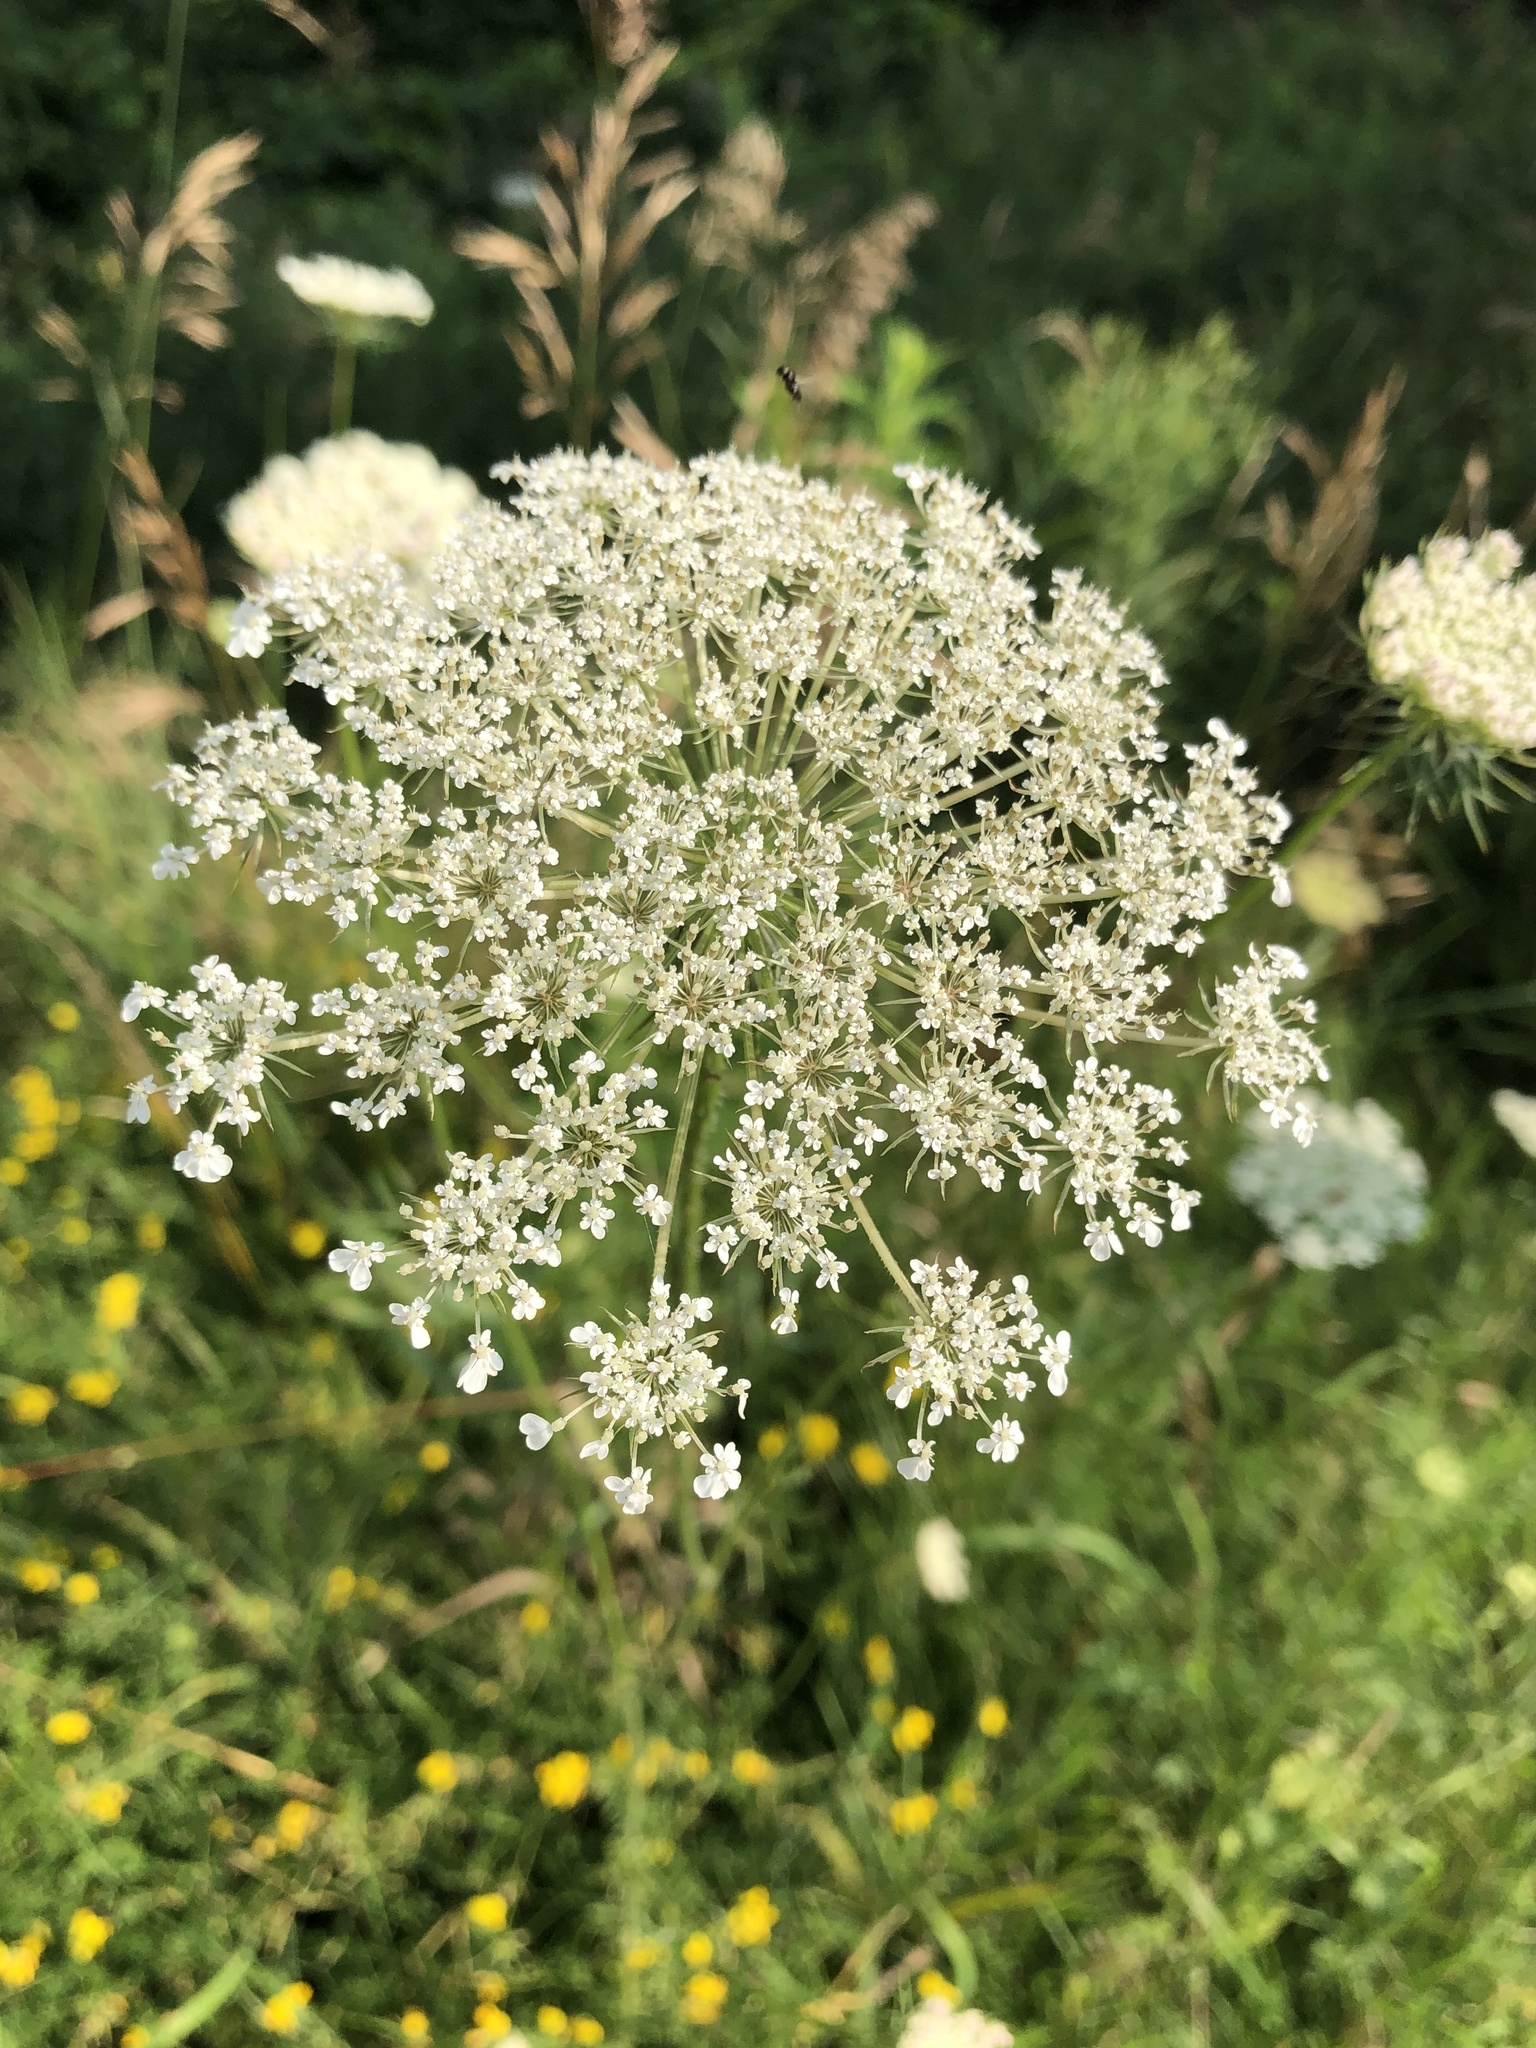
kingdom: Plantae
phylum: Tracheophyta
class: Magnoliopsida
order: Apiales
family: Apiaceae
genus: Daucus
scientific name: Daucus carota
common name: Wild carrot
